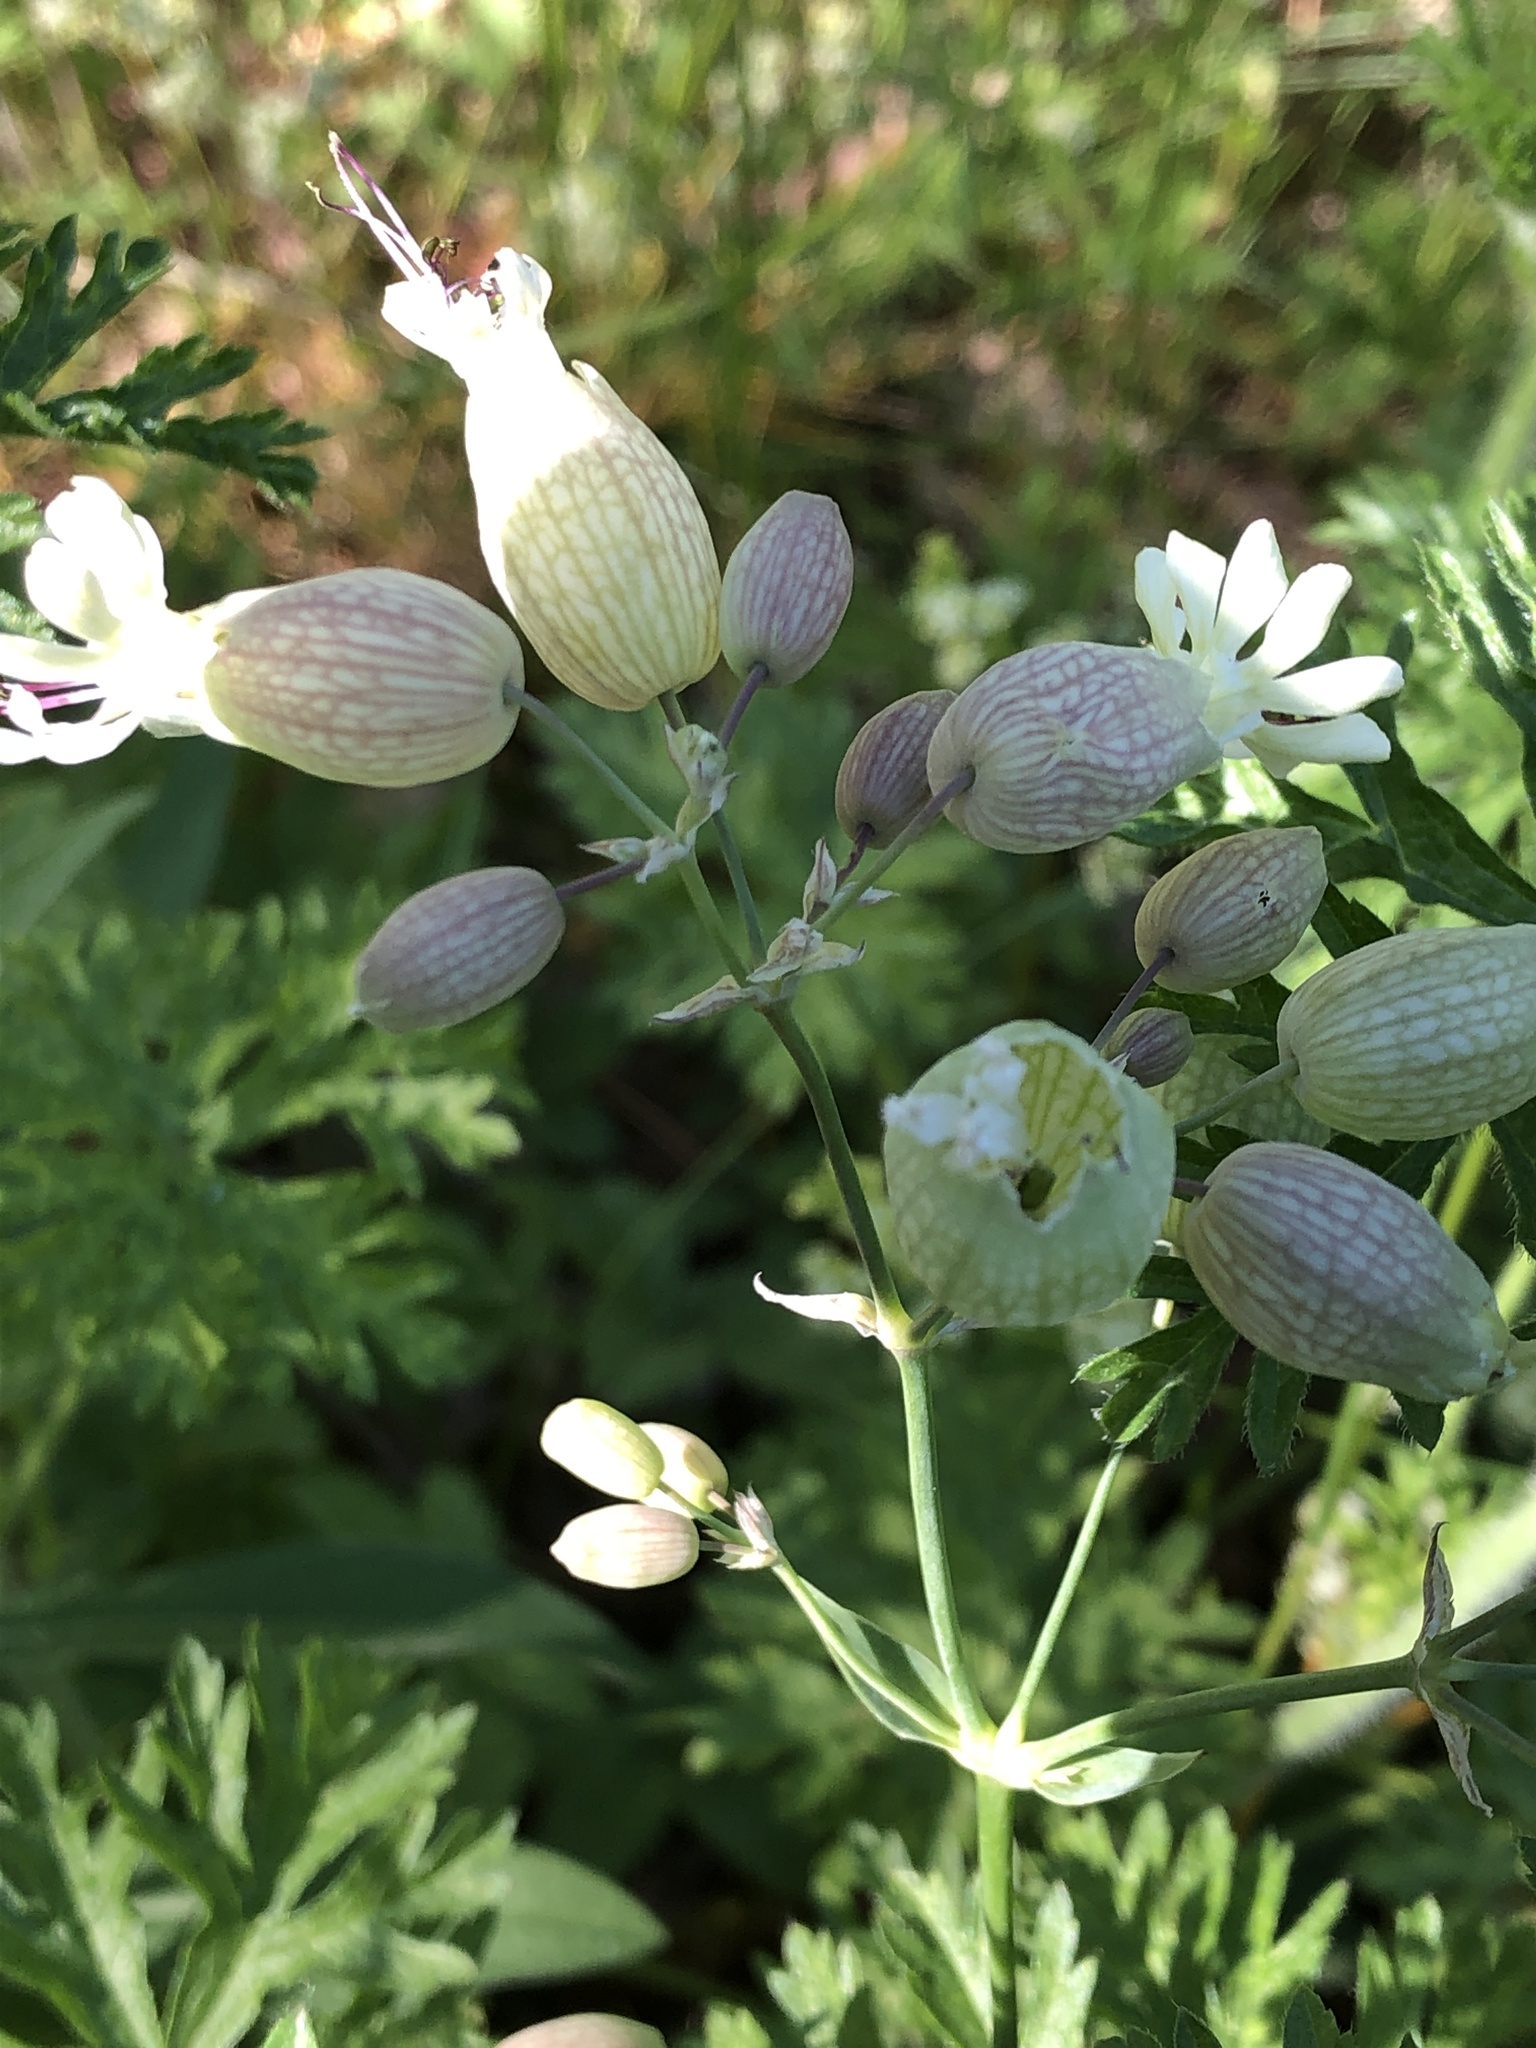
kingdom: Plantae
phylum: Tracheophyta
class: Magnoliopsida
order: Caryophyllales
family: Caryophyllaceae
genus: Silene
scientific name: Silene vulgaris
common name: Bladder campion
